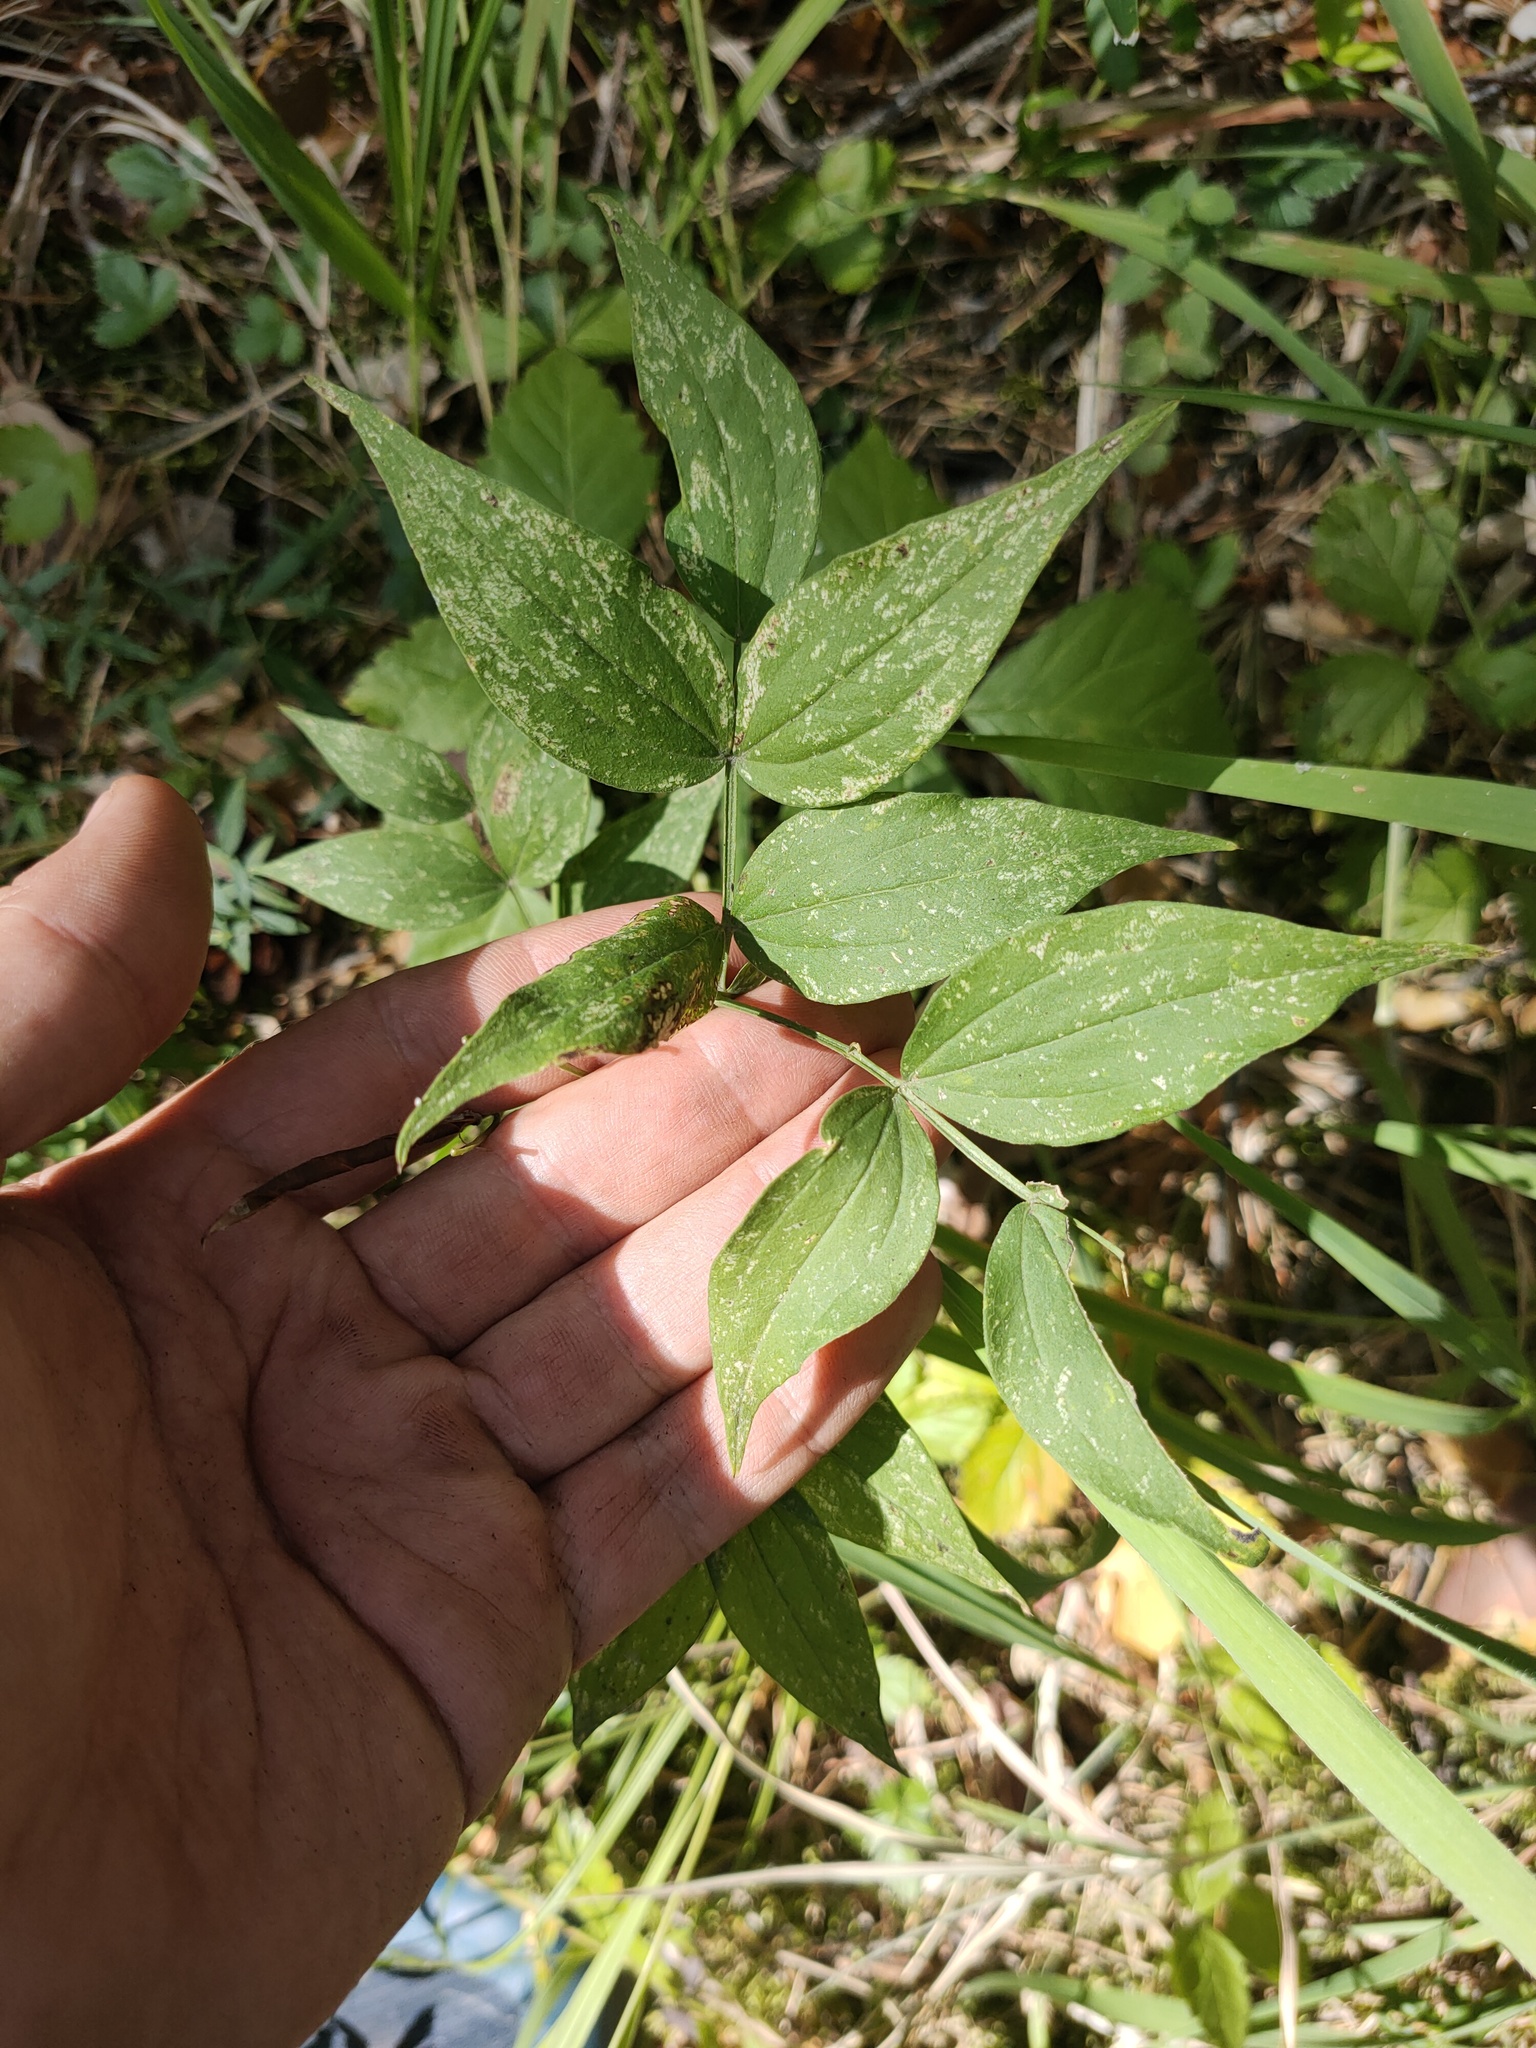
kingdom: Plantae
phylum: Tracheophyta
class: Magnoliopsida
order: Fabales
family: Fabaceae
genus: Lathyrus
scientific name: Lathyrus vernus
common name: Spring pea
